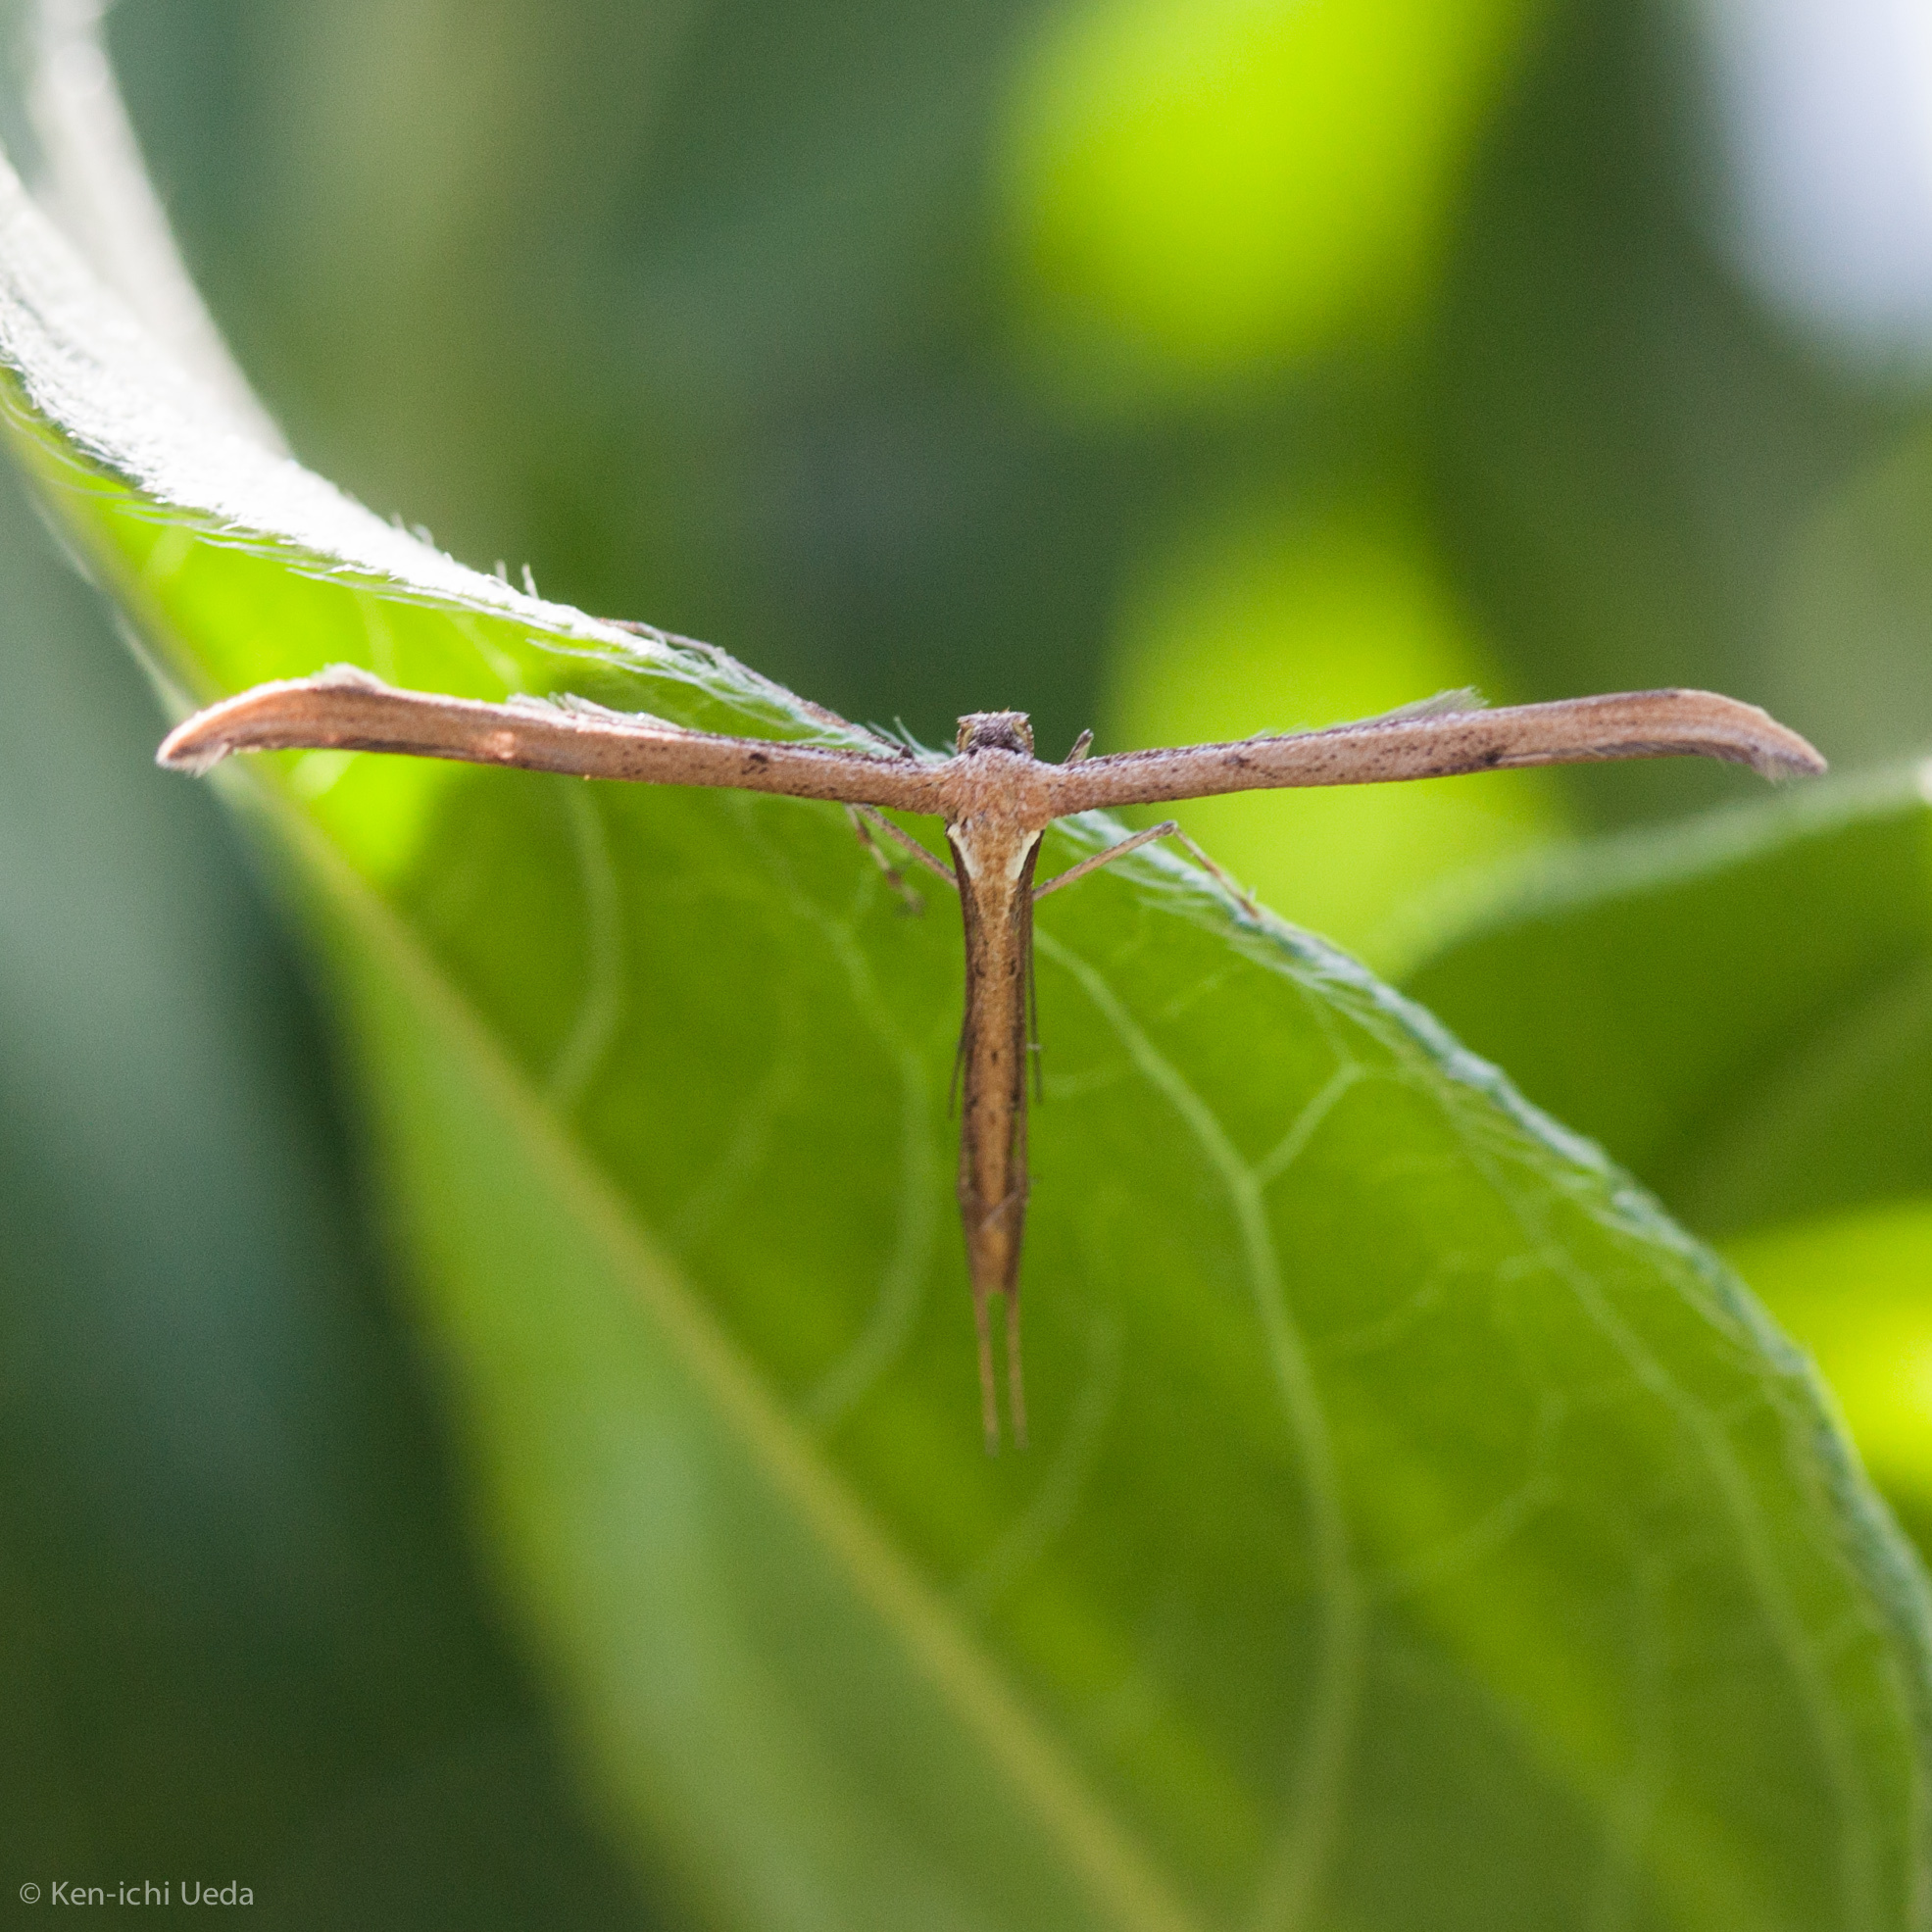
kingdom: Animalia
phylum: Arthropoda
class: Insecta
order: Lepidoptera
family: Pterophoridae
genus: Emmelina
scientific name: Emmelina monodactyla
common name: Common plume
